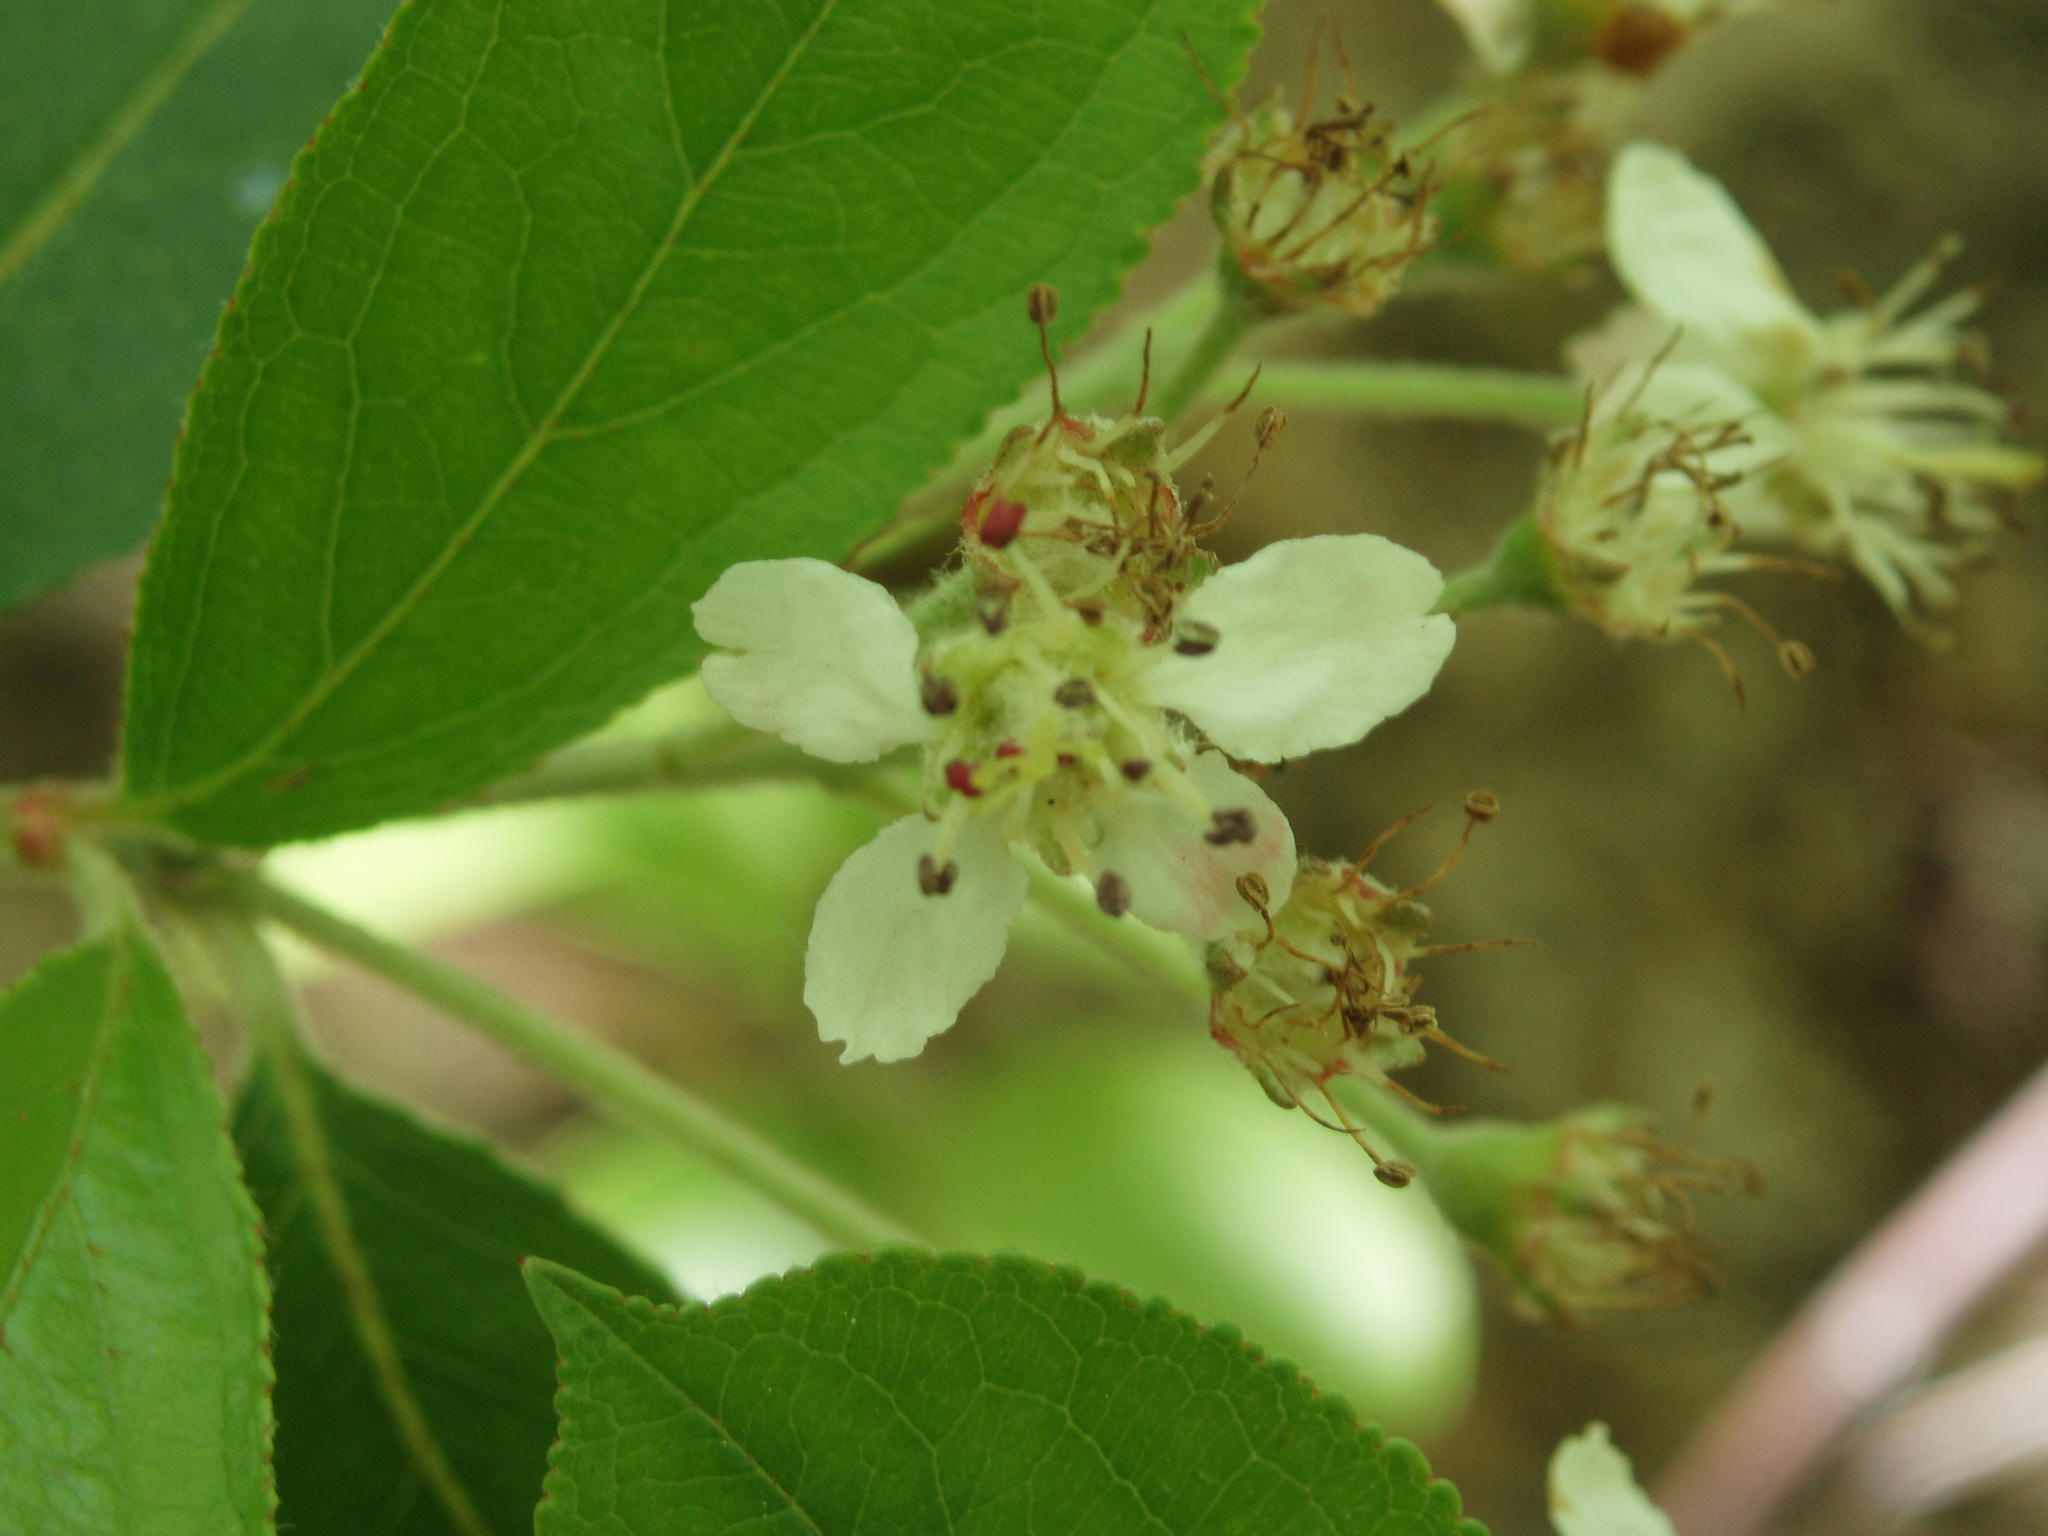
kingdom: Plantae
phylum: Tracheophyta
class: Magnoliopsida
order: Rosales
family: Rosaceae
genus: Aronia
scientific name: Aronia prunifolia
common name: Purple chokeberry
